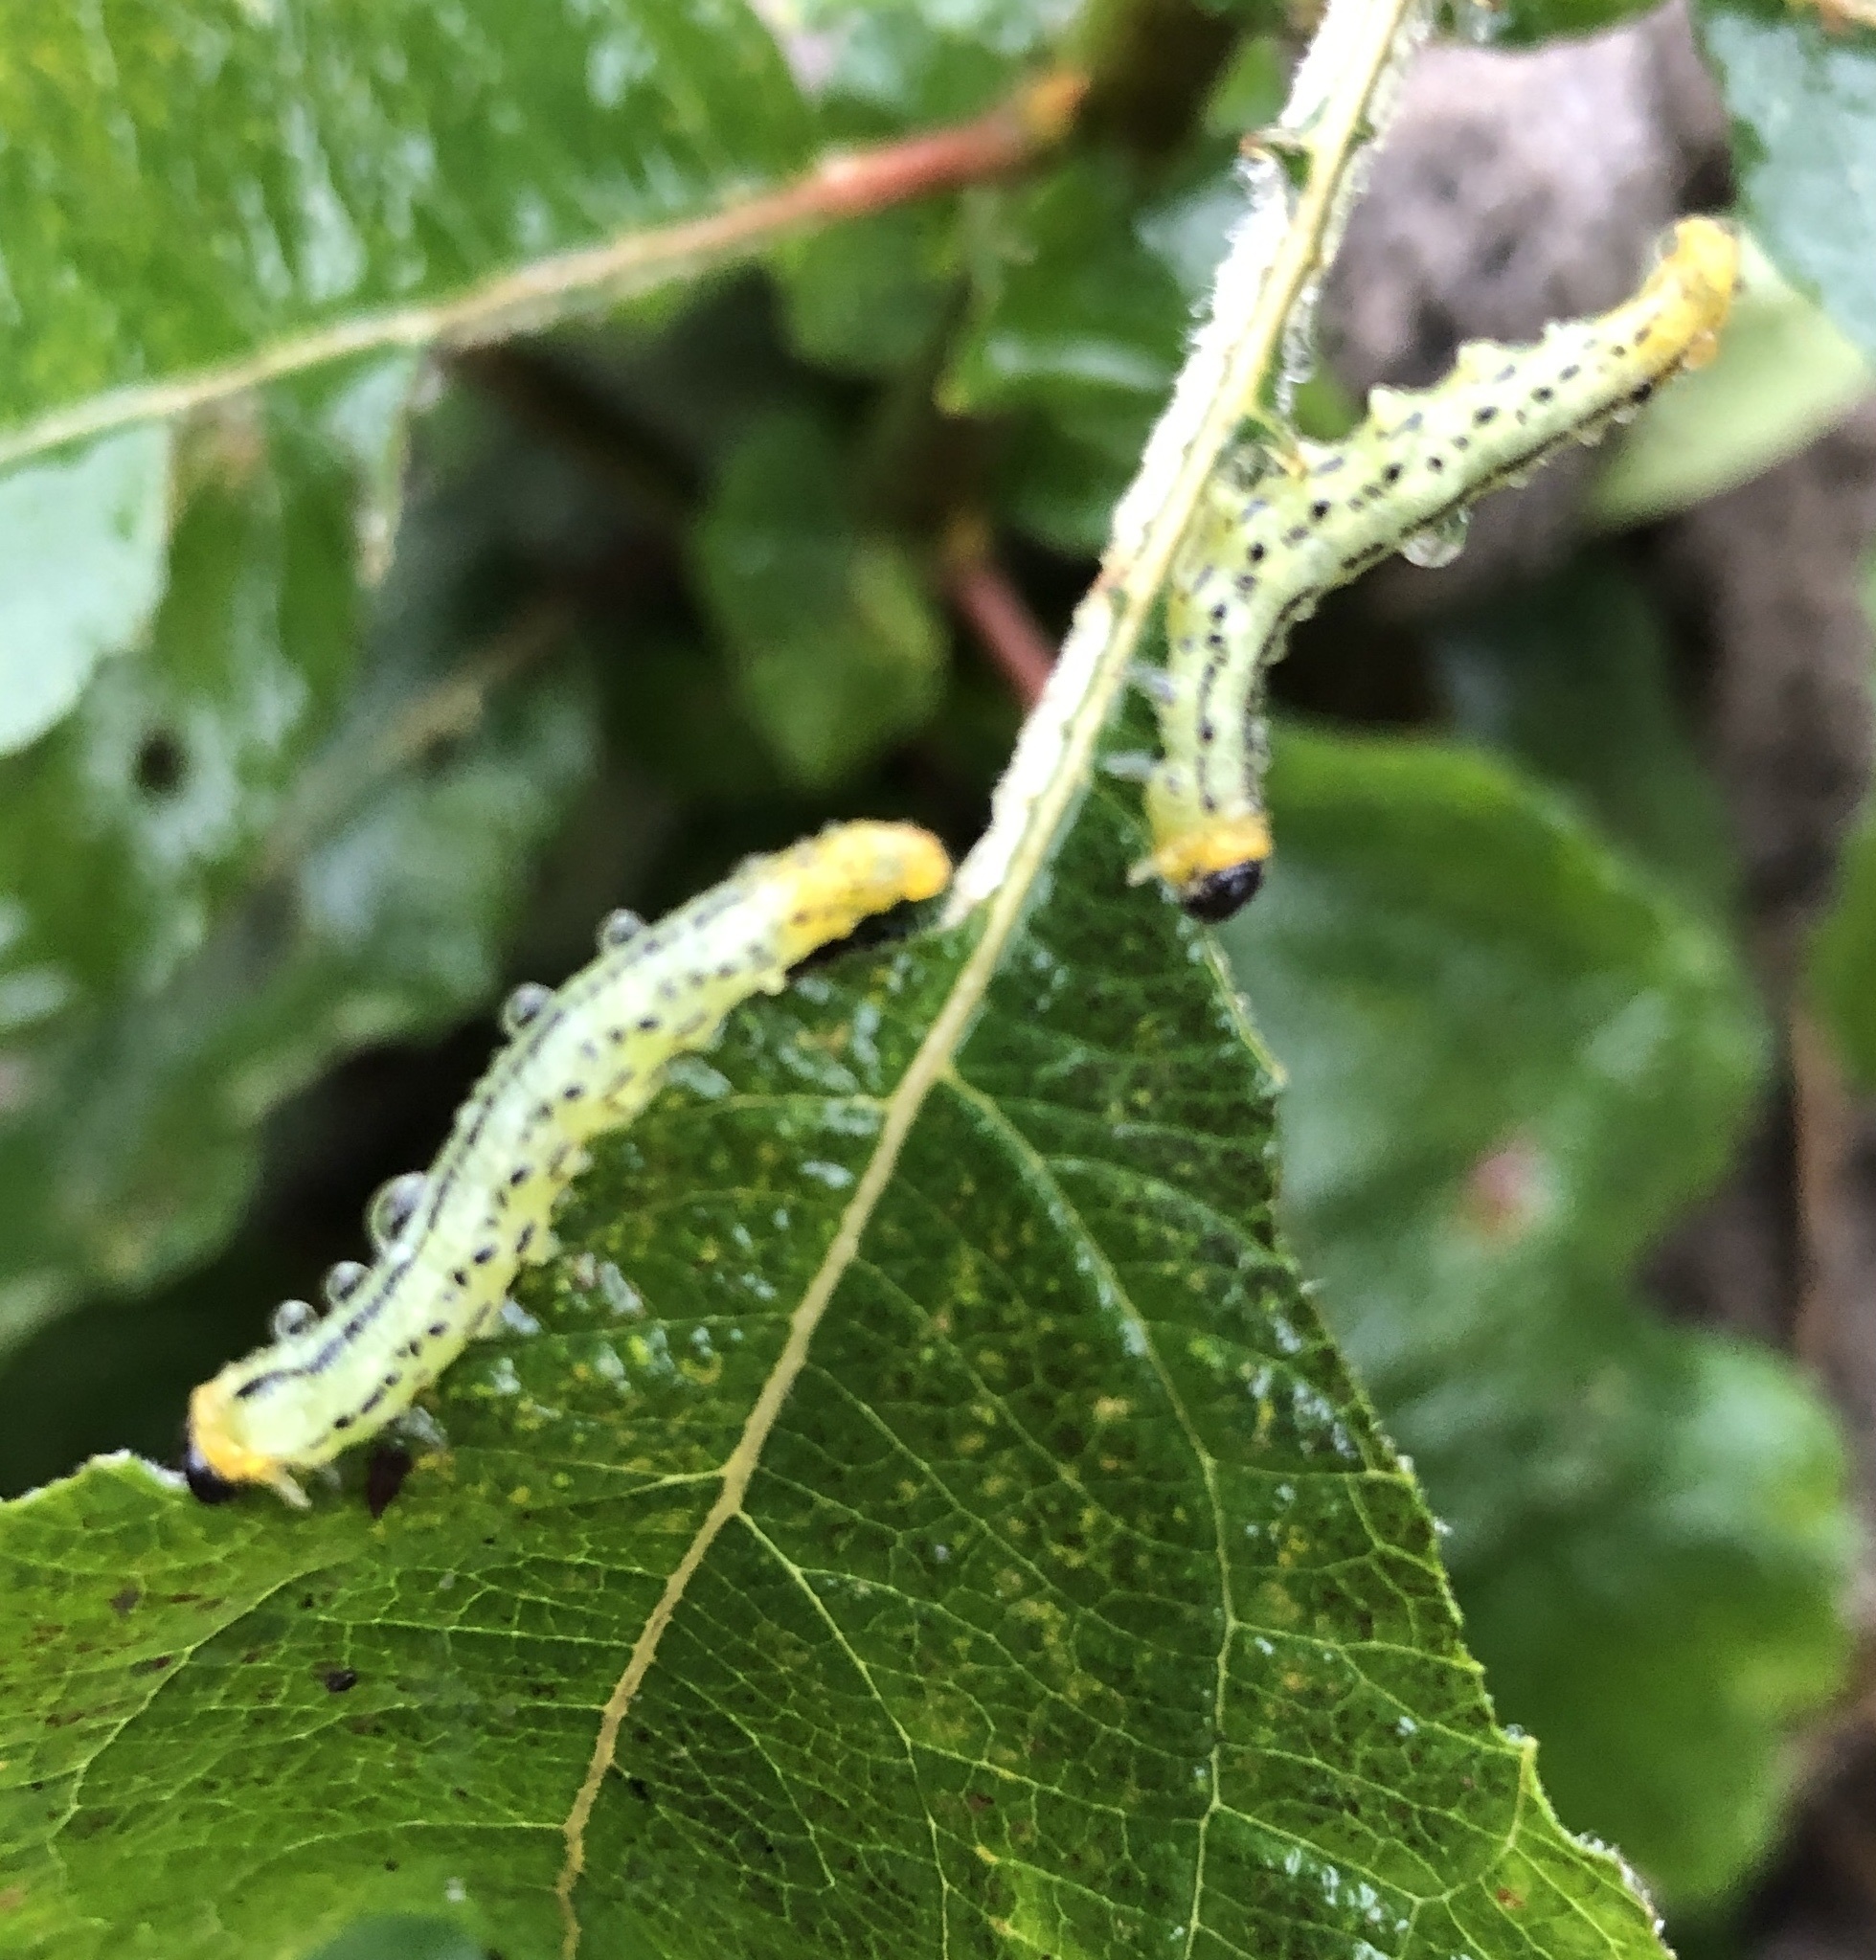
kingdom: Animalia
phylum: Arthropoda
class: Insecta
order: Hymenoptera
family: Tenthredinidae
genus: Nematus
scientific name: Nematus pavidus
